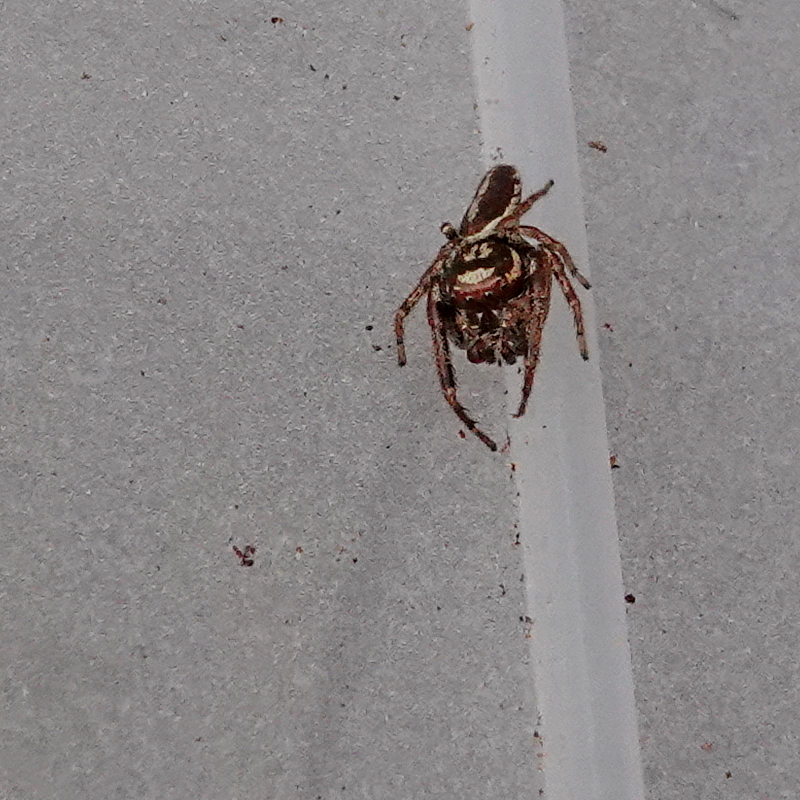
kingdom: Animalia
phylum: Arthropoda
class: Arachnida
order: Araneae
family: Salticidae
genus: Opisthoncus
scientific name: Opisthoncus serratofasciatus
